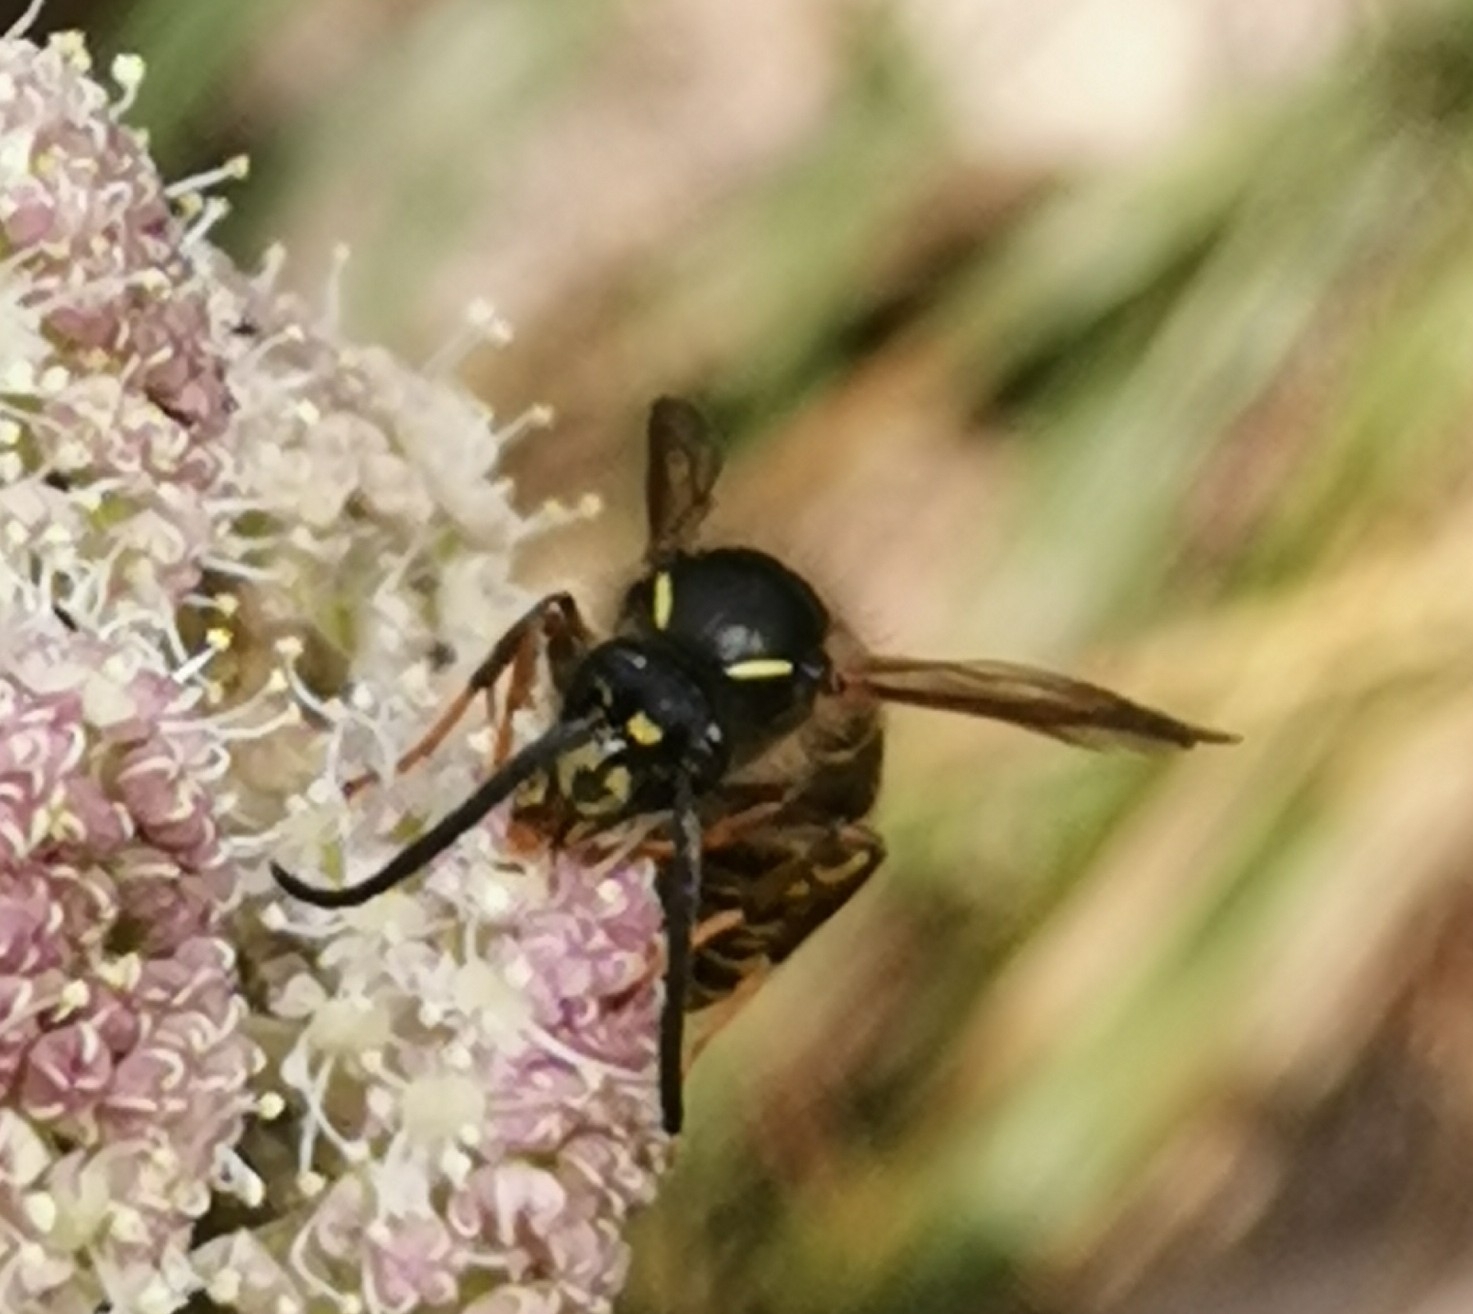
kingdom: Animalia
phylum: Arthropoda
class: Insecta
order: Hymenoptera
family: Vespidae
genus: Dolichovespula
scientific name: Dolichovespula saxonica
